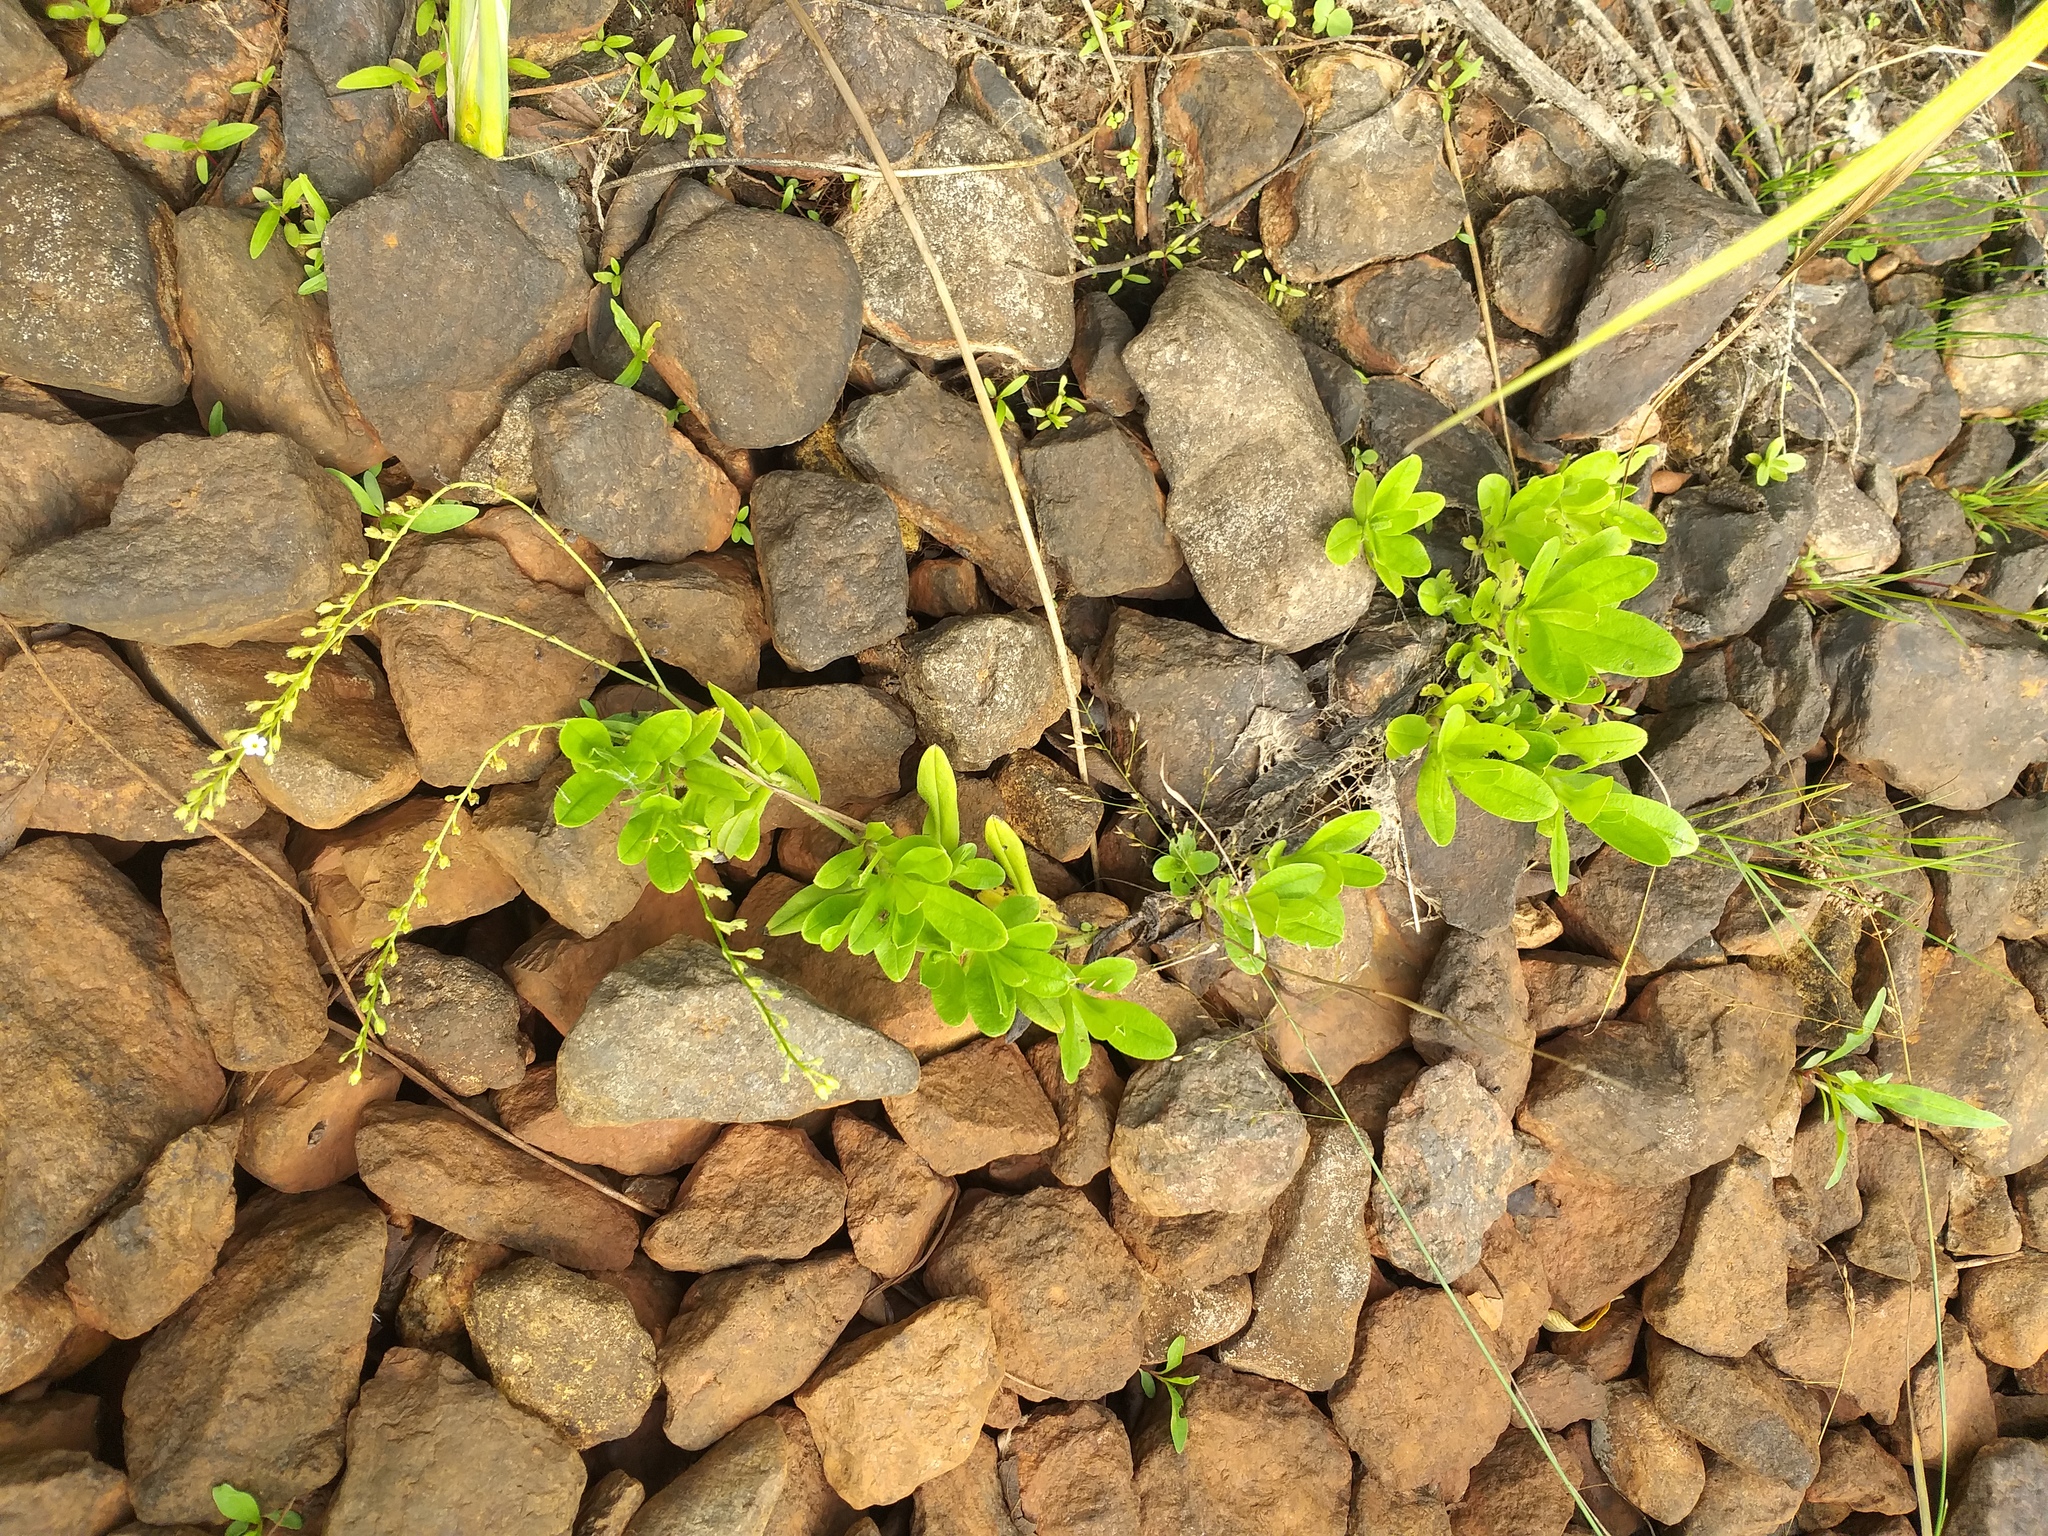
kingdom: Plantae
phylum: Tracheophyta
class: Magnoliopsida
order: Boraginales
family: Boraginaceae
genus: Myosotis
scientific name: Myosotis scorpioides
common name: Water forget-me-not
